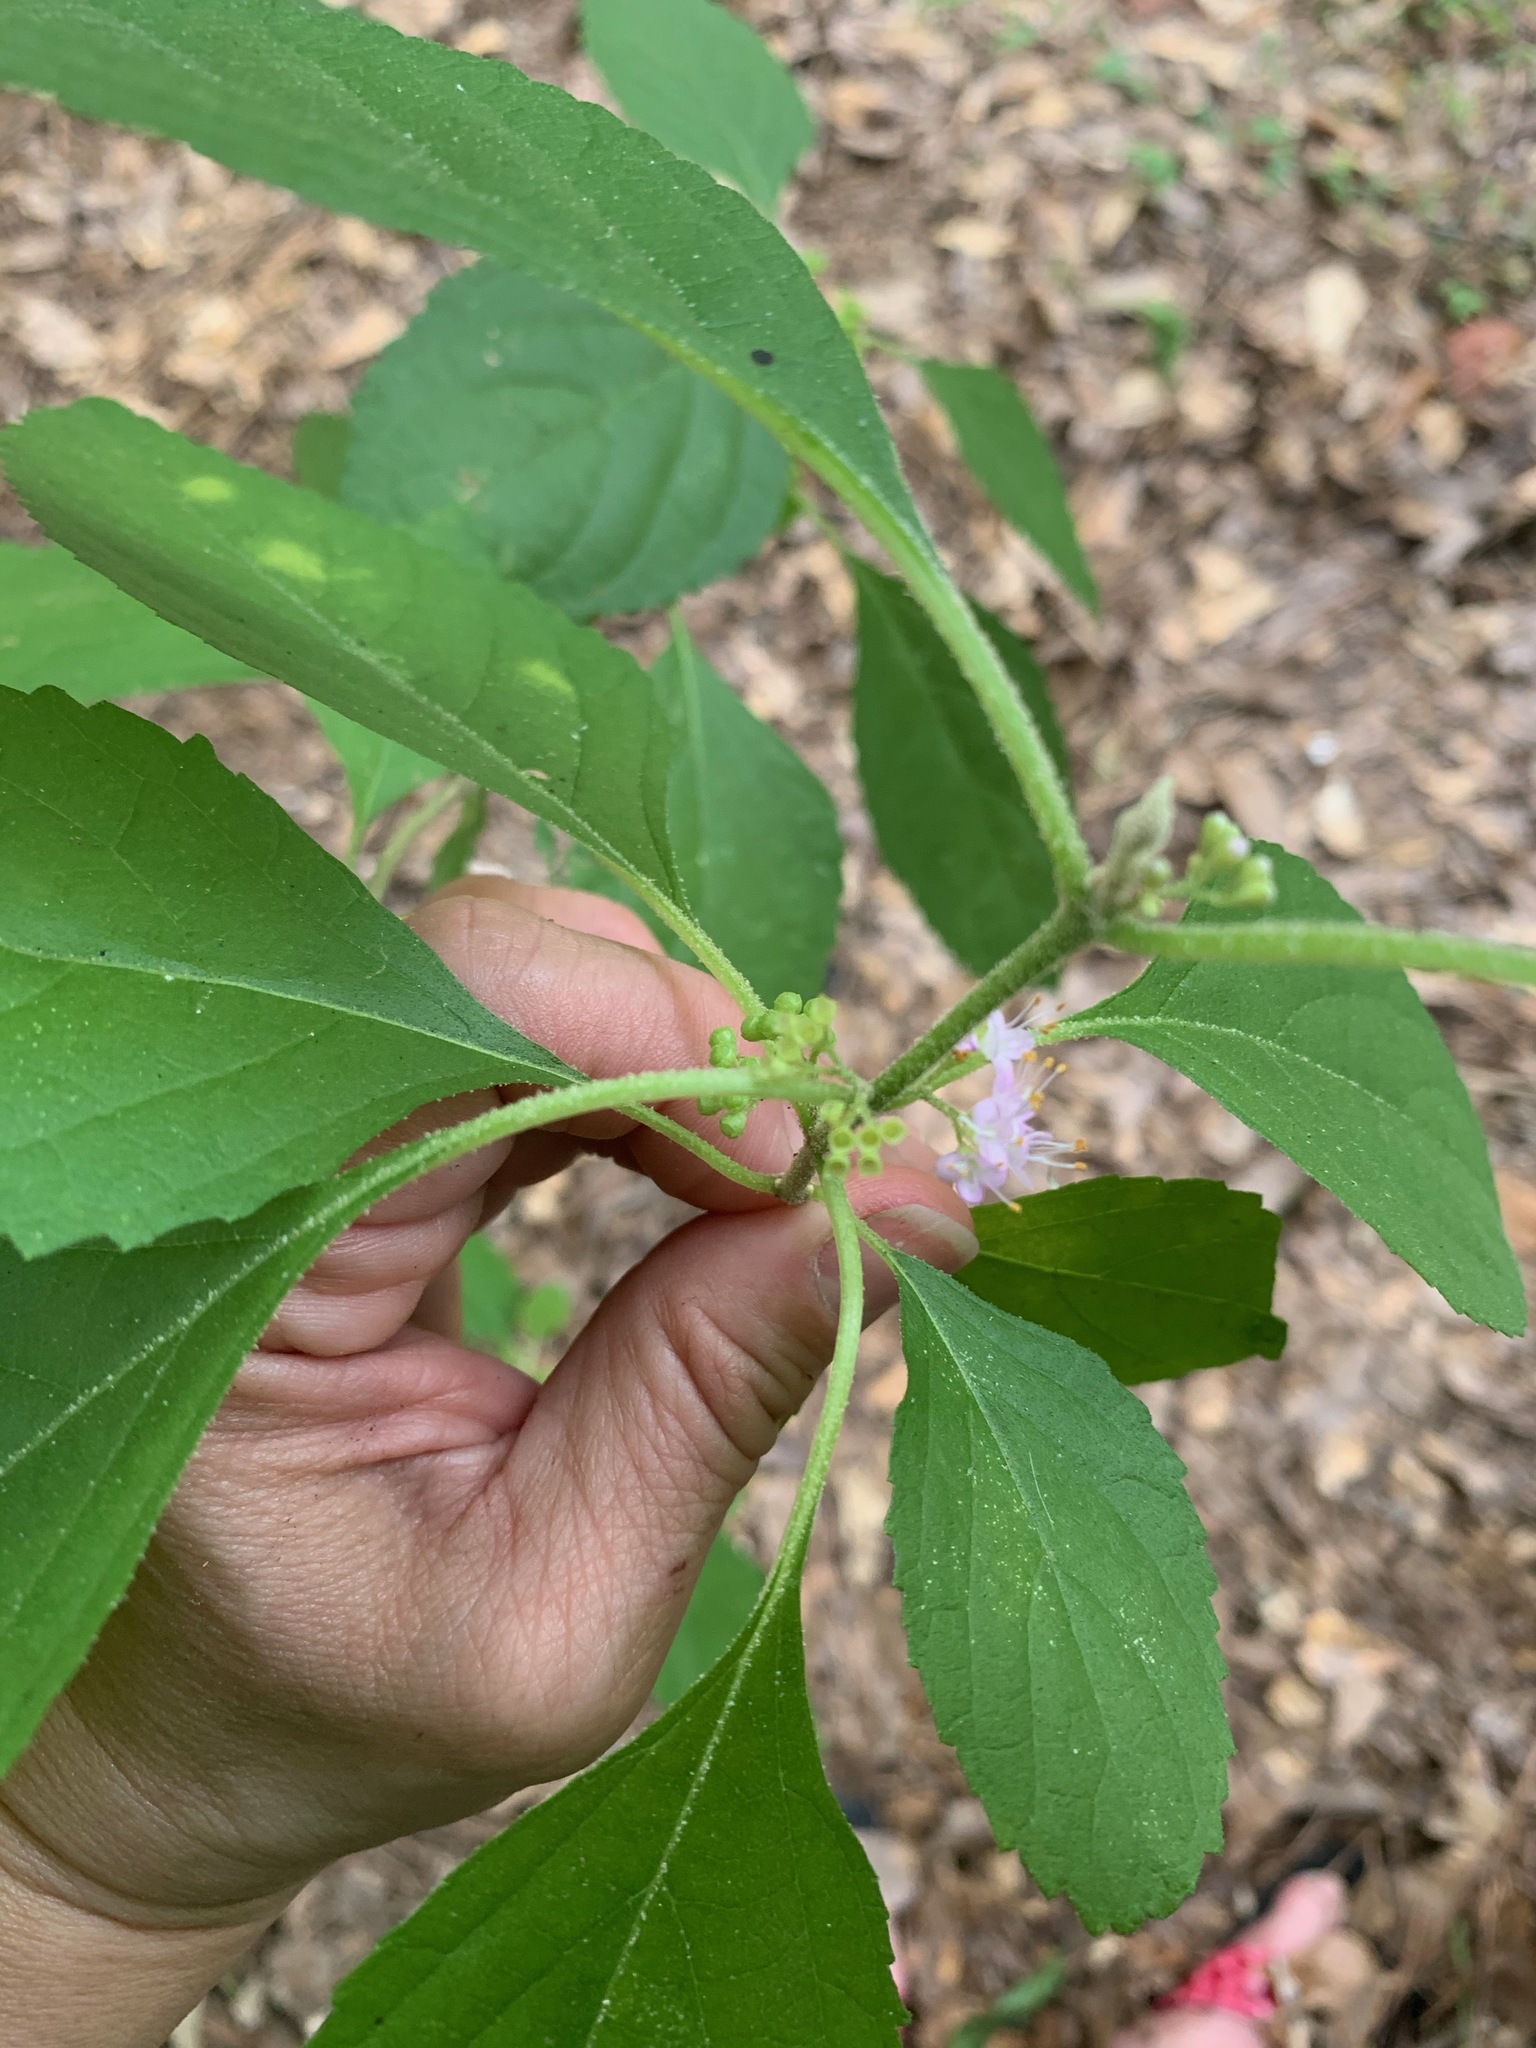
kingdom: Plantae
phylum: Tracheophyta
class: Magnoliopsida
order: Lamiales
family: Lamiaceae
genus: Callicarpa
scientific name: Callicarpa americana
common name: American beautyberry
